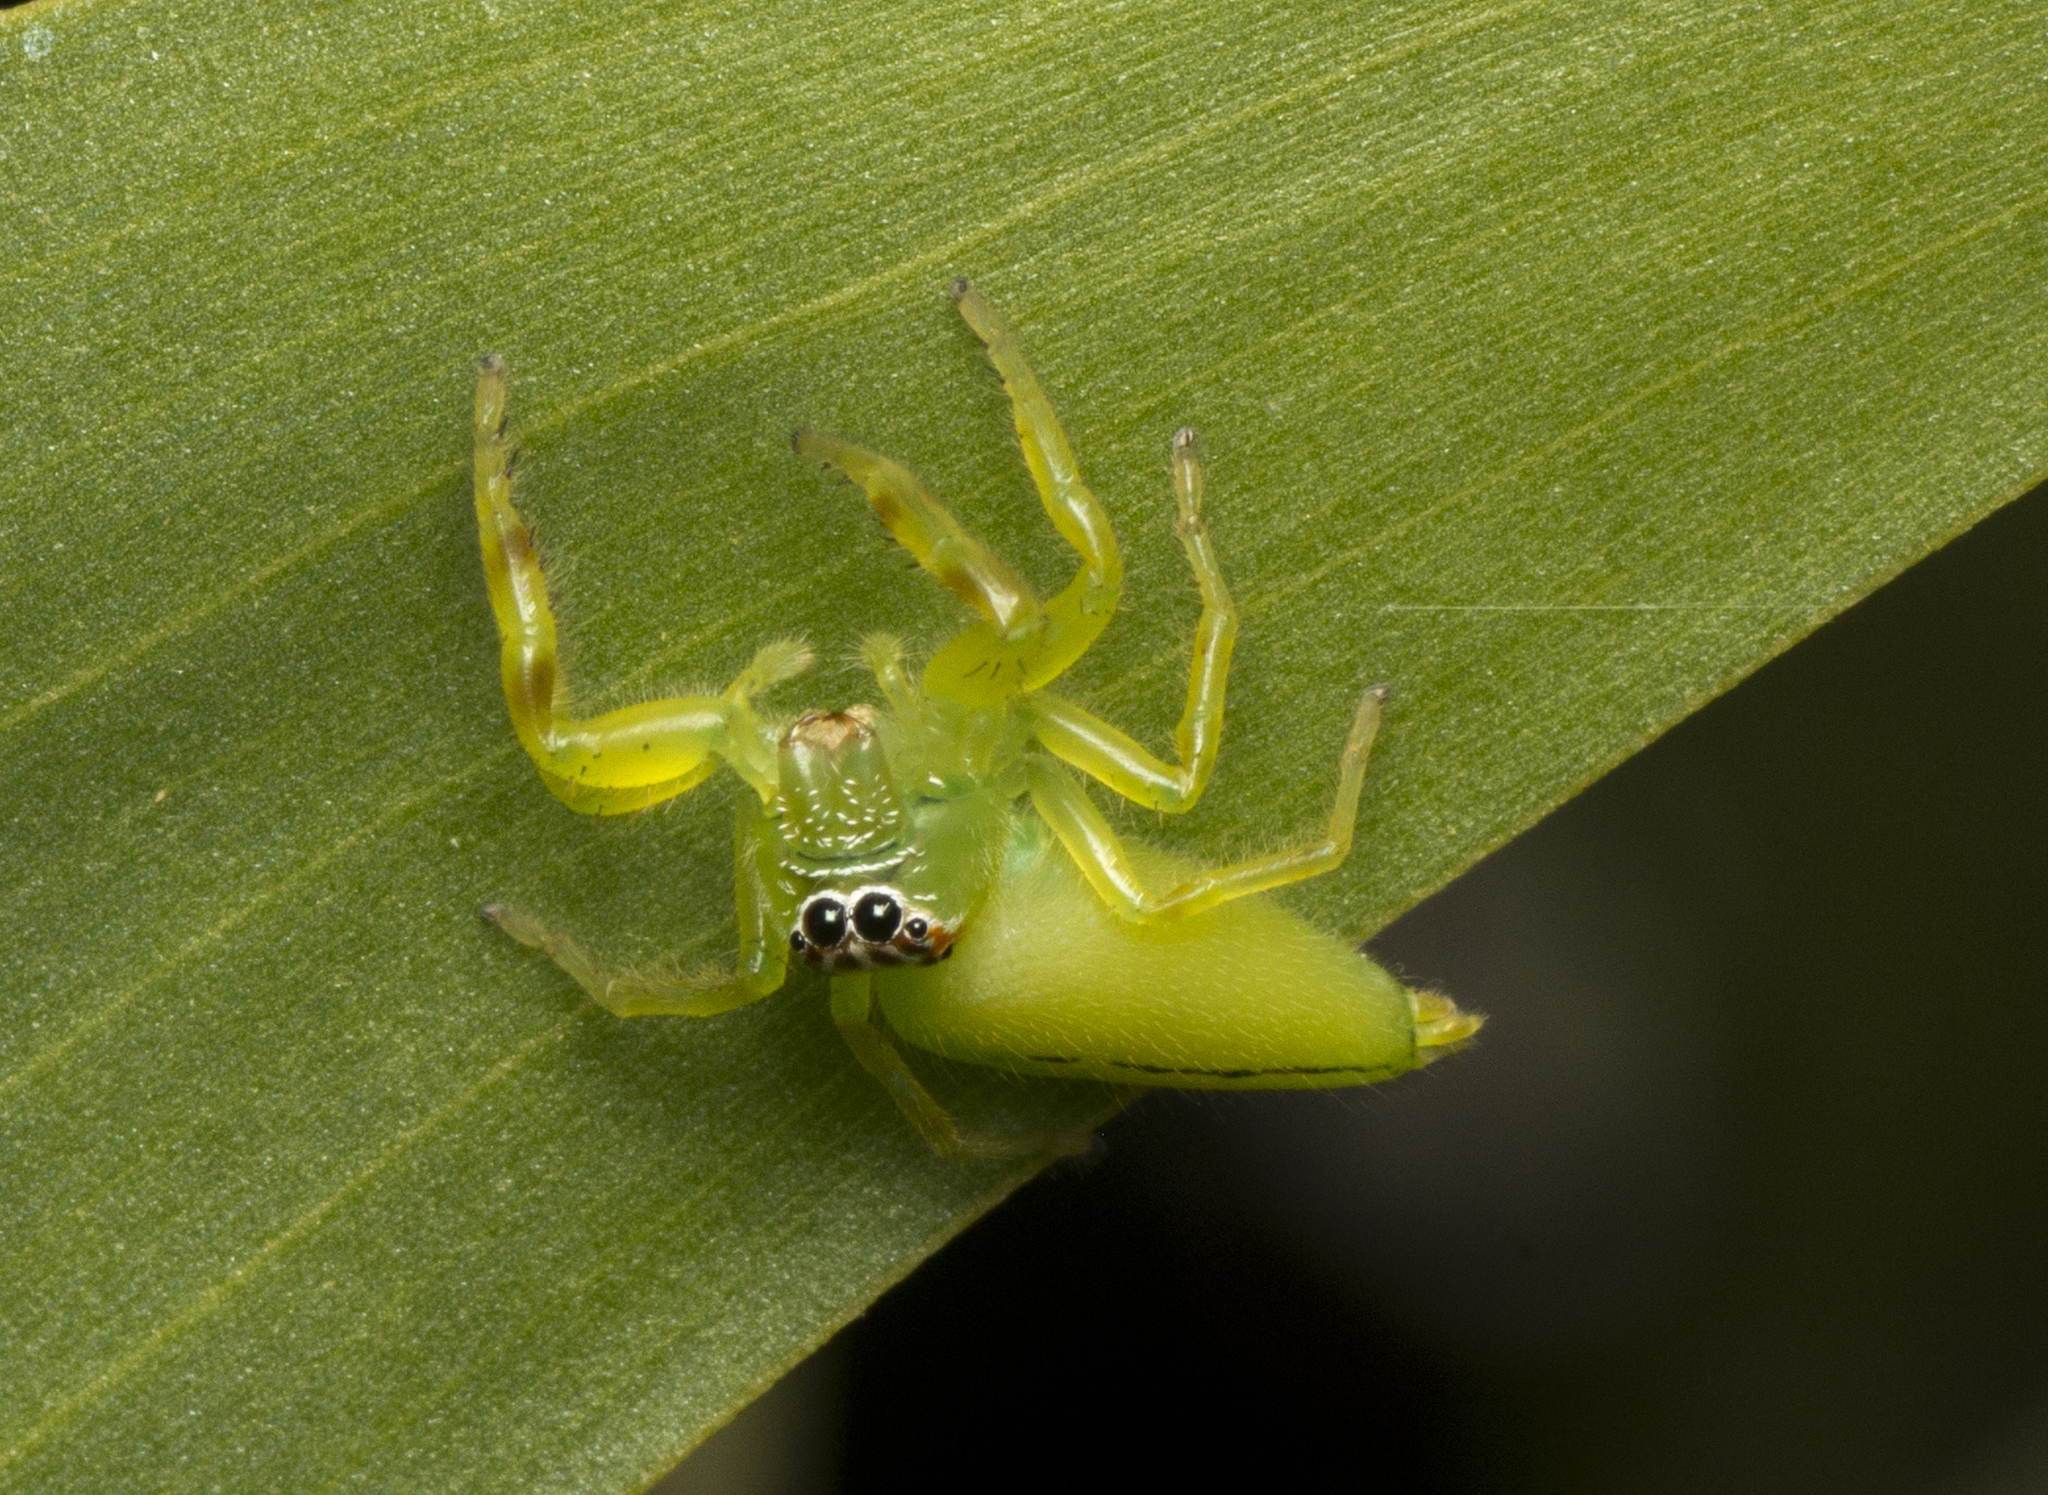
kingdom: Animalia
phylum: Arthropoda
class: Arachnida
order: Araneae
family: Salticidae
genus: Mopsus
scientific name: Mopsus mormon
